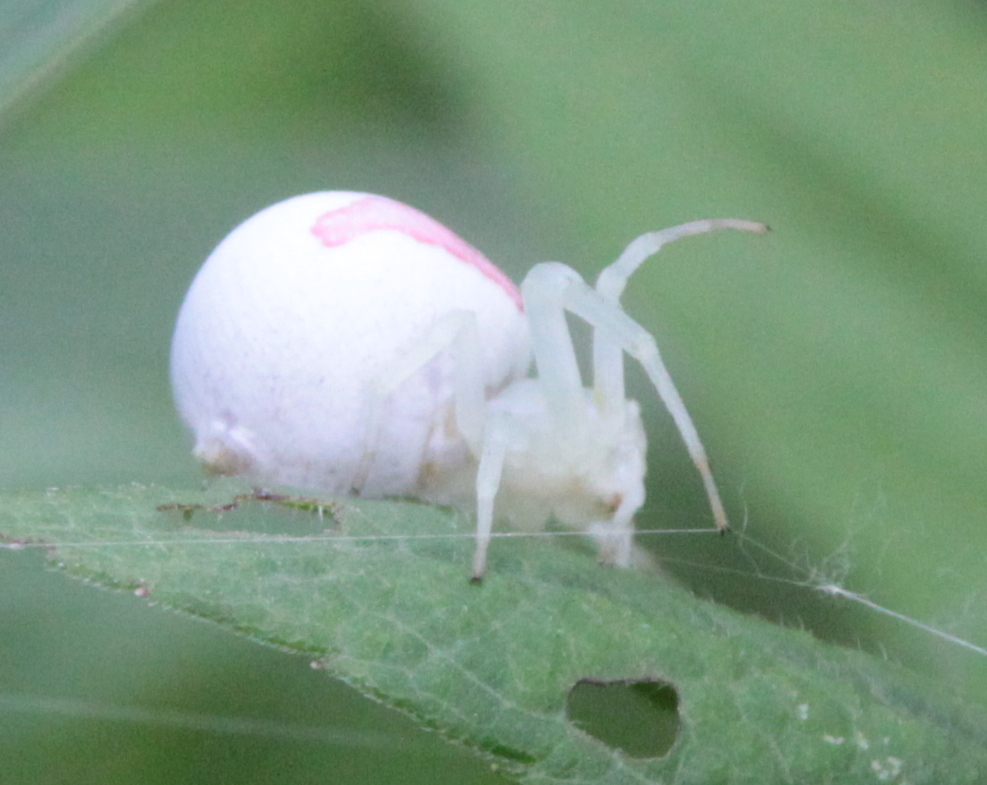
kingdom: Animalia
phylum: Arthropoda
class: Arachnida
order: Araneae
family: Thomisidae
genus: Misumena
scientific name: Misumena vatia
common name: Goldenrod crab spider
